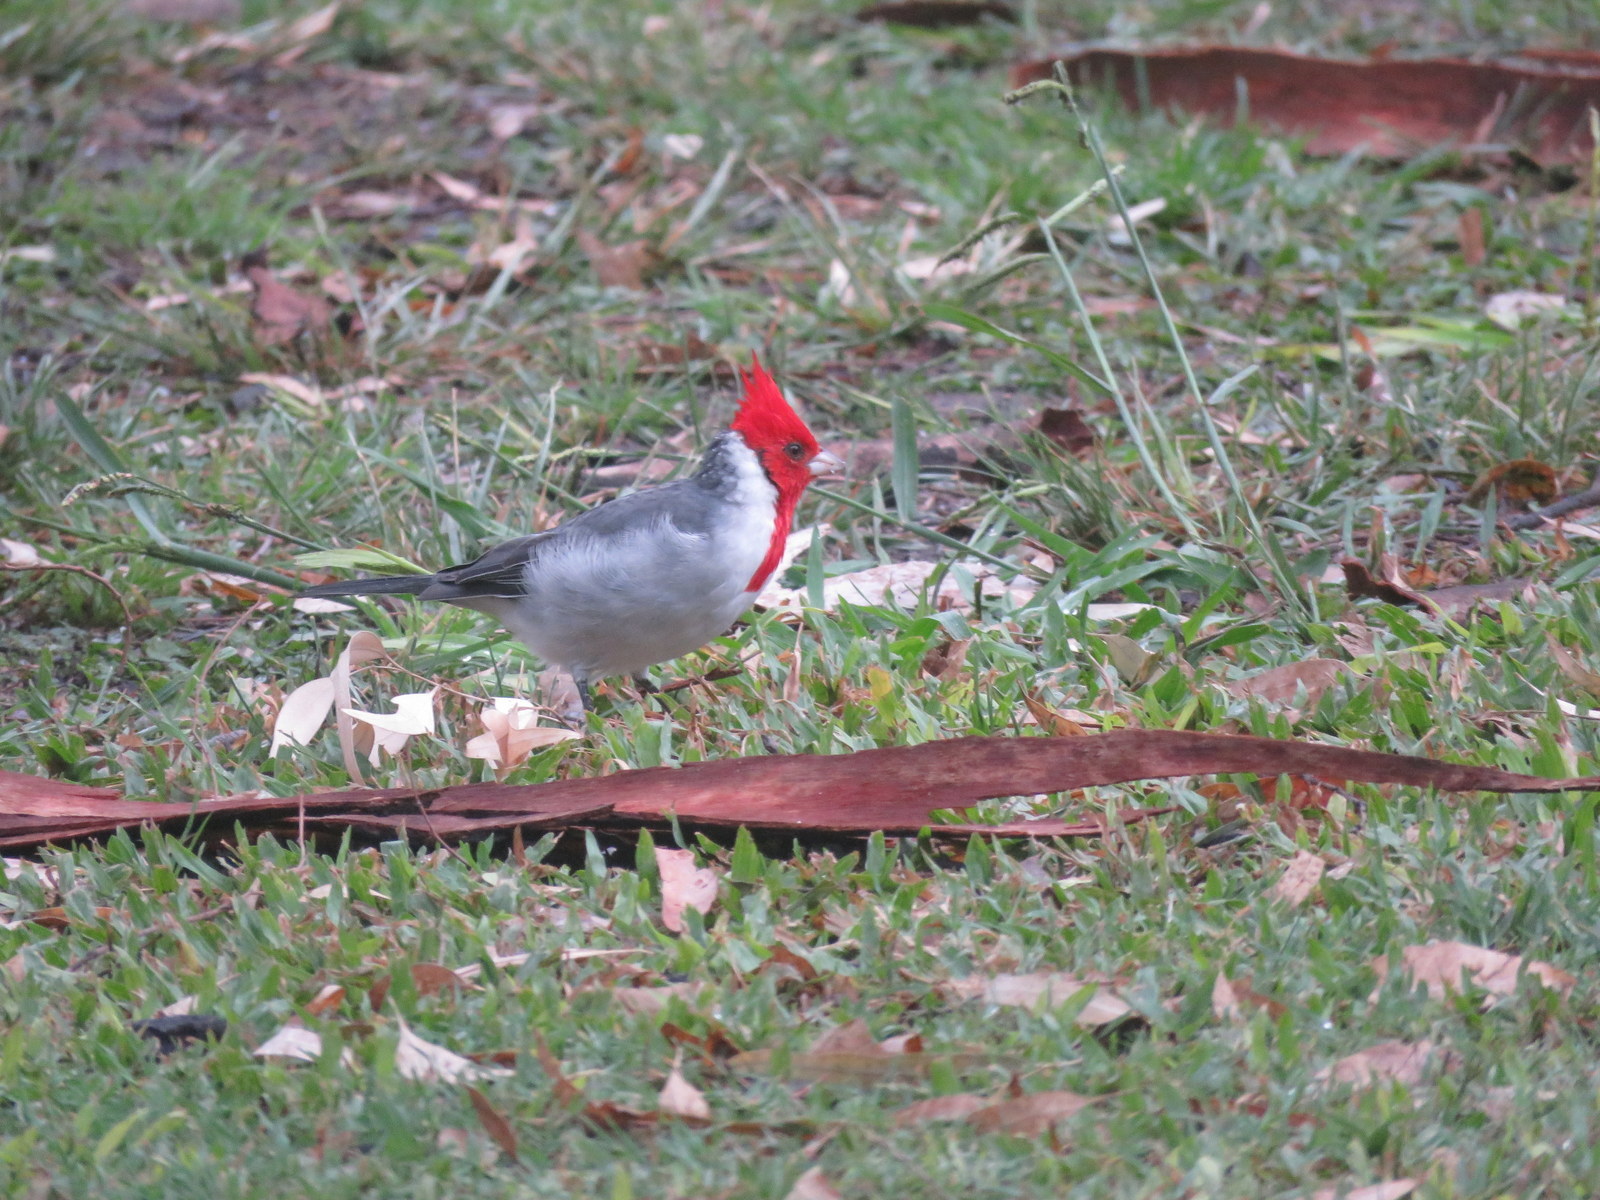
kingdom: Animalia
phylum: Chordata
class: Aves
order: Passeriformes
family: Thraupidae
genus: Paroaria
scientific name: Paroaria coronata
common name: Red-crested cardinal
